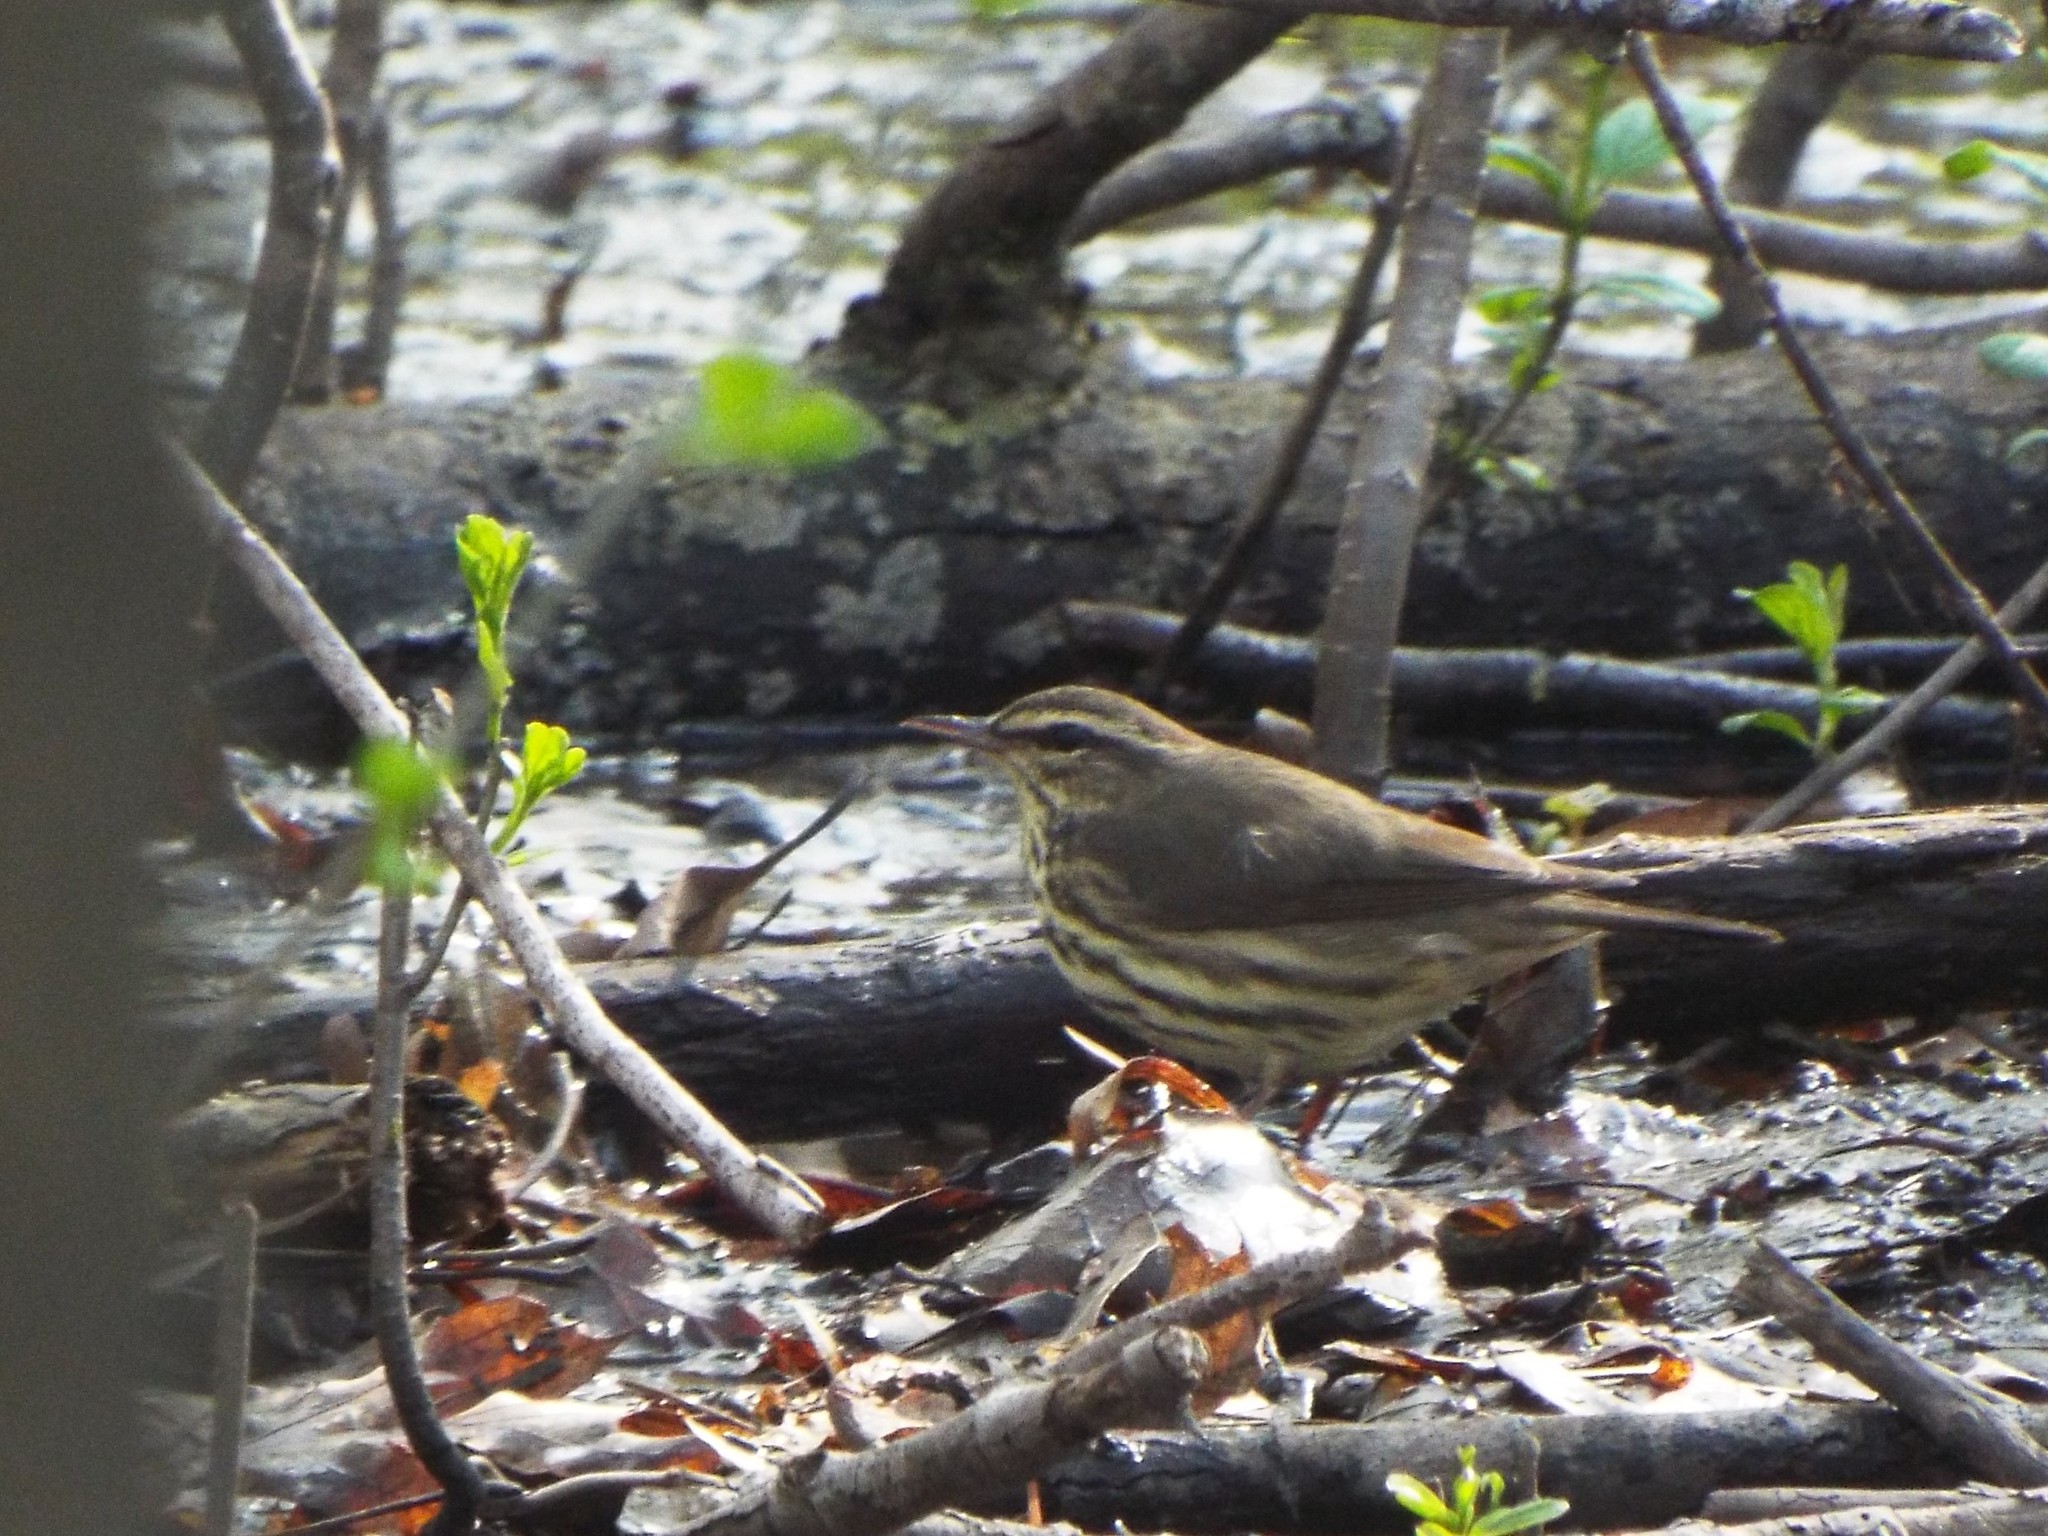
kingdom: Animalia
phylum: Chordata
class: Aves
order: Passeriformes
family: Parulidae
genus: Parkesia
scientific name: Parkesia noveboracensis
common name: Northern waterthrush
